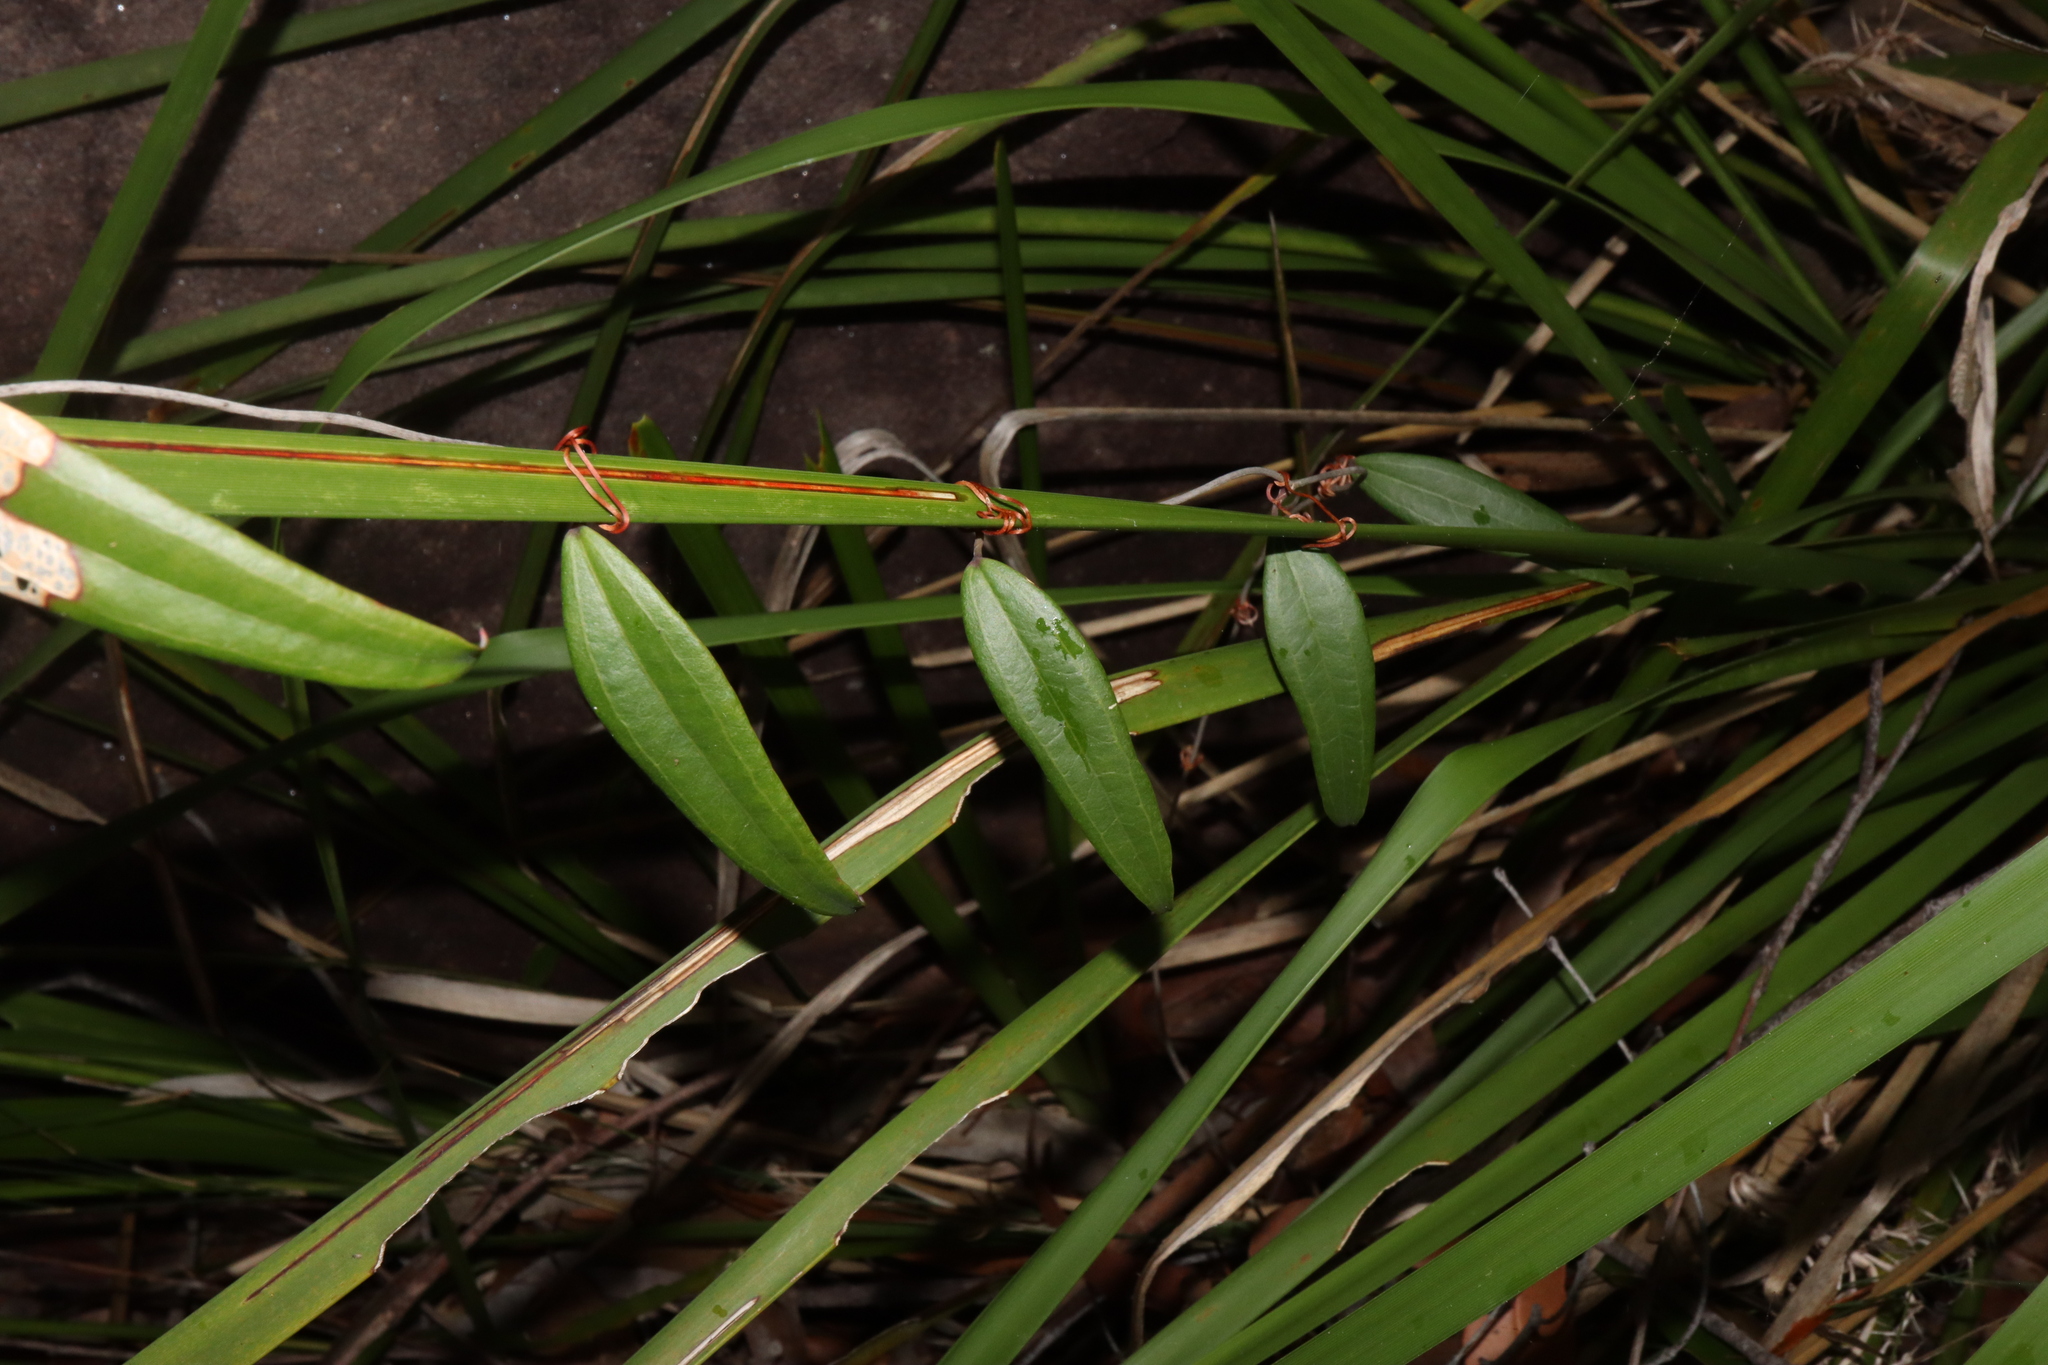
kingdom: Plantae
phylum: Tracheophyta
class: Liliopsida
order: Liliales
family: Smilacaceae
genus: Smilax
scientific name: Smilax glyciphylla
